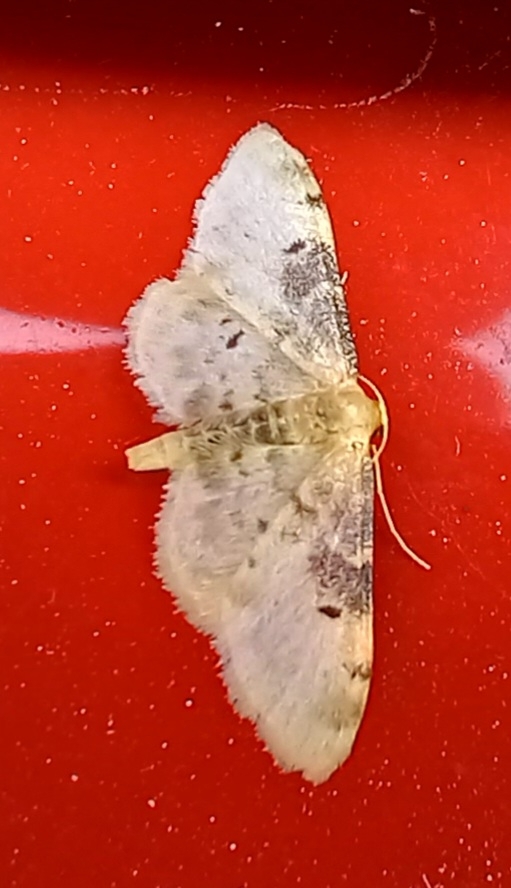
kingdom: Animalia
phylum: Arthropoda
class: Insecta
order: Lepidoptera
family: Geometridae
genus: Idaea
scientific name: Idaea filicata
